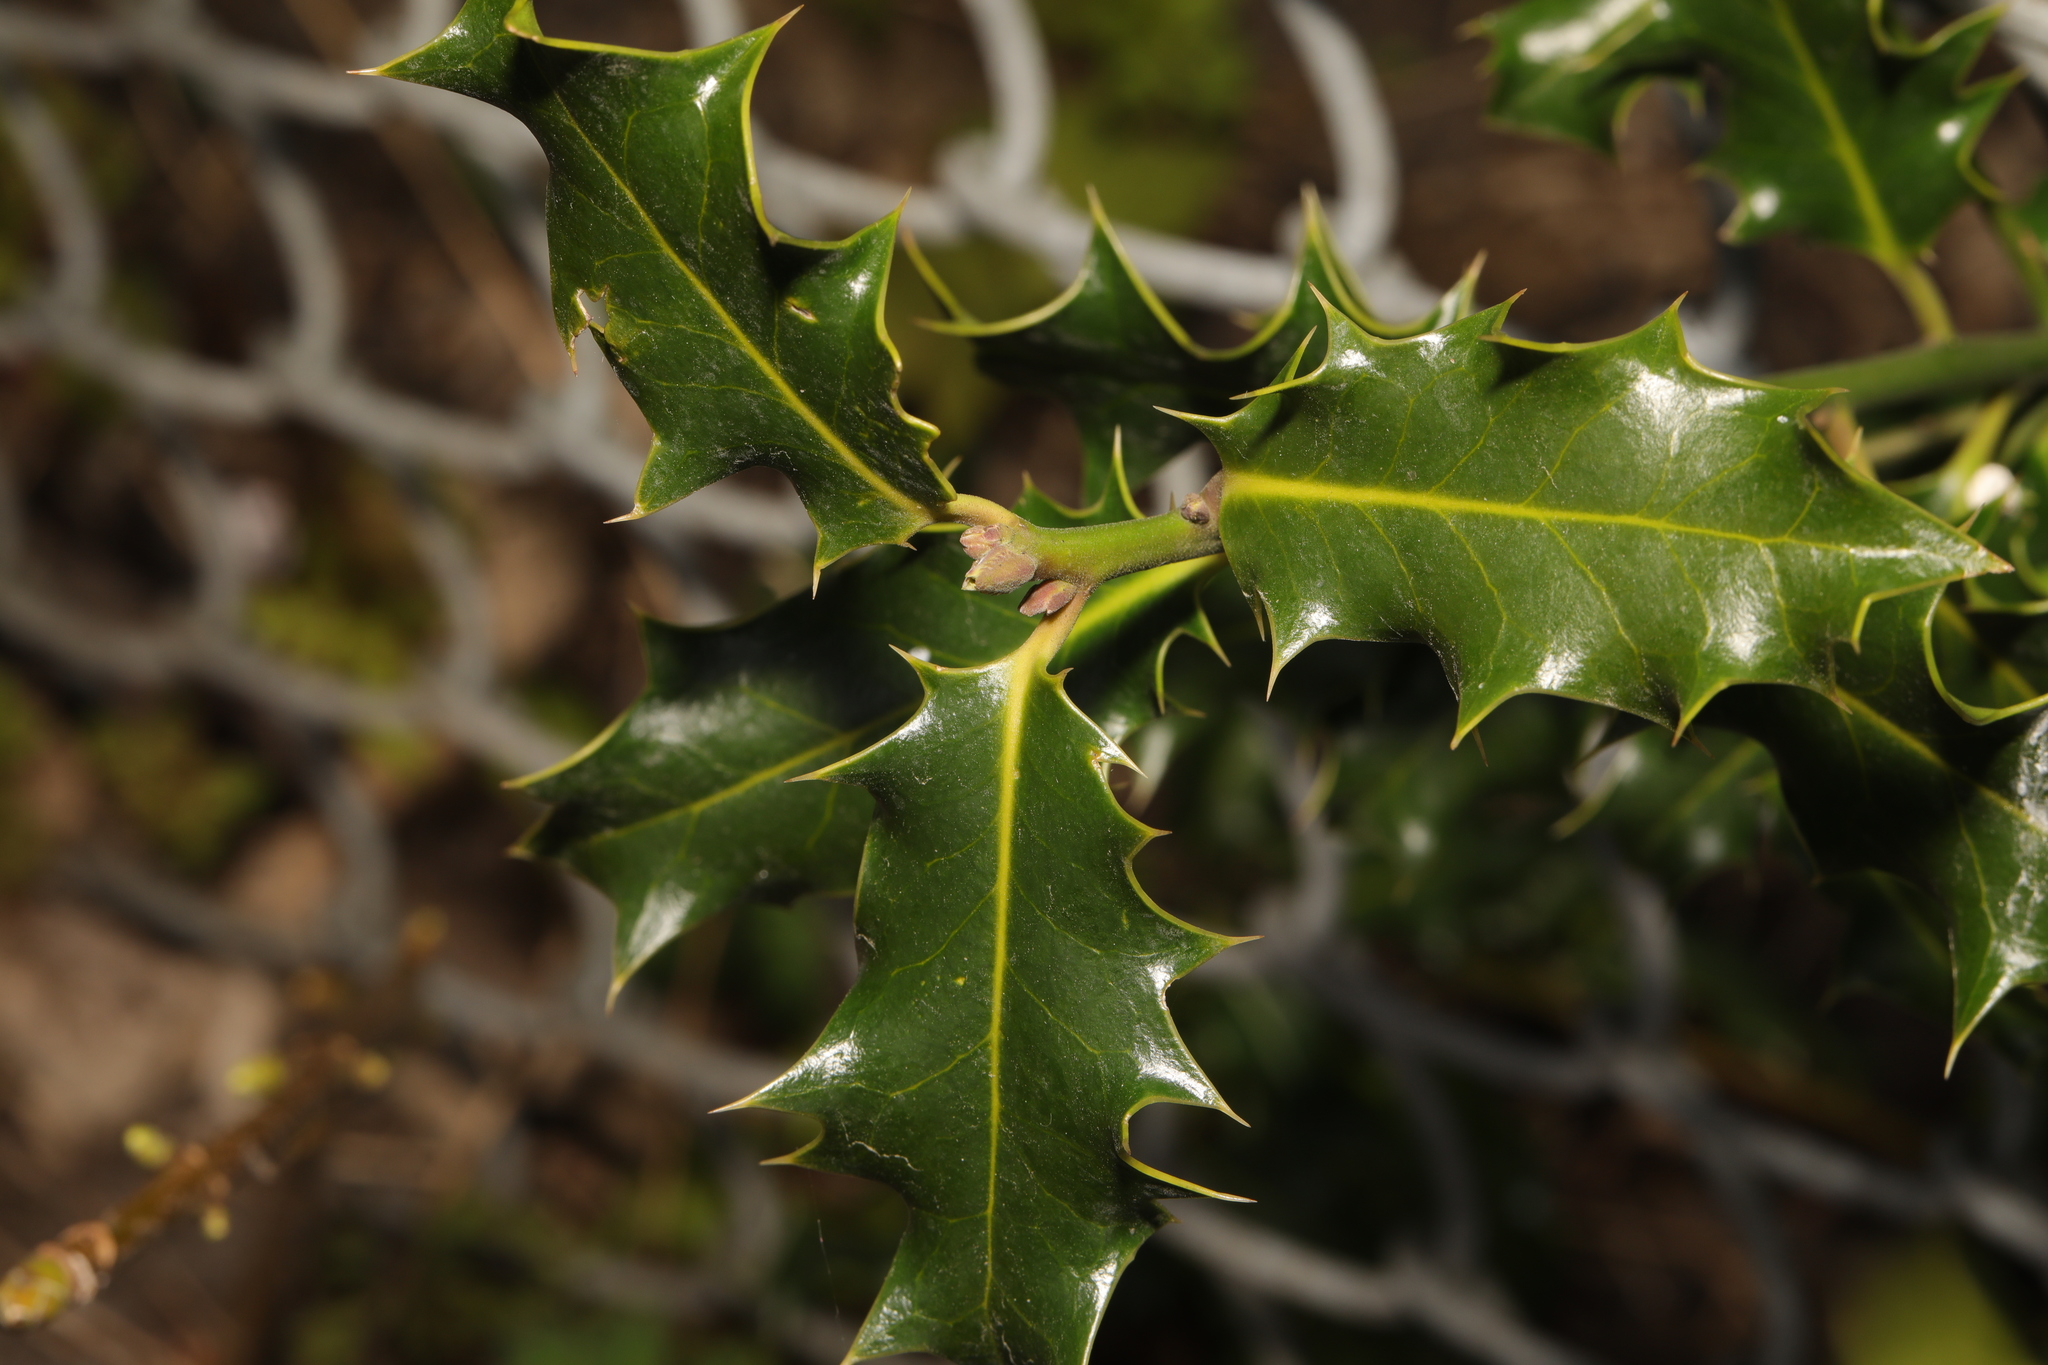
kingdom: Plantae
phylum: Tracheophyta
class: Magnoliopsida
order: Aquifoliales
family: Aquifoliaceae
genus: Ilex
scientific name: Ilex aquifolium
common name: English holly
